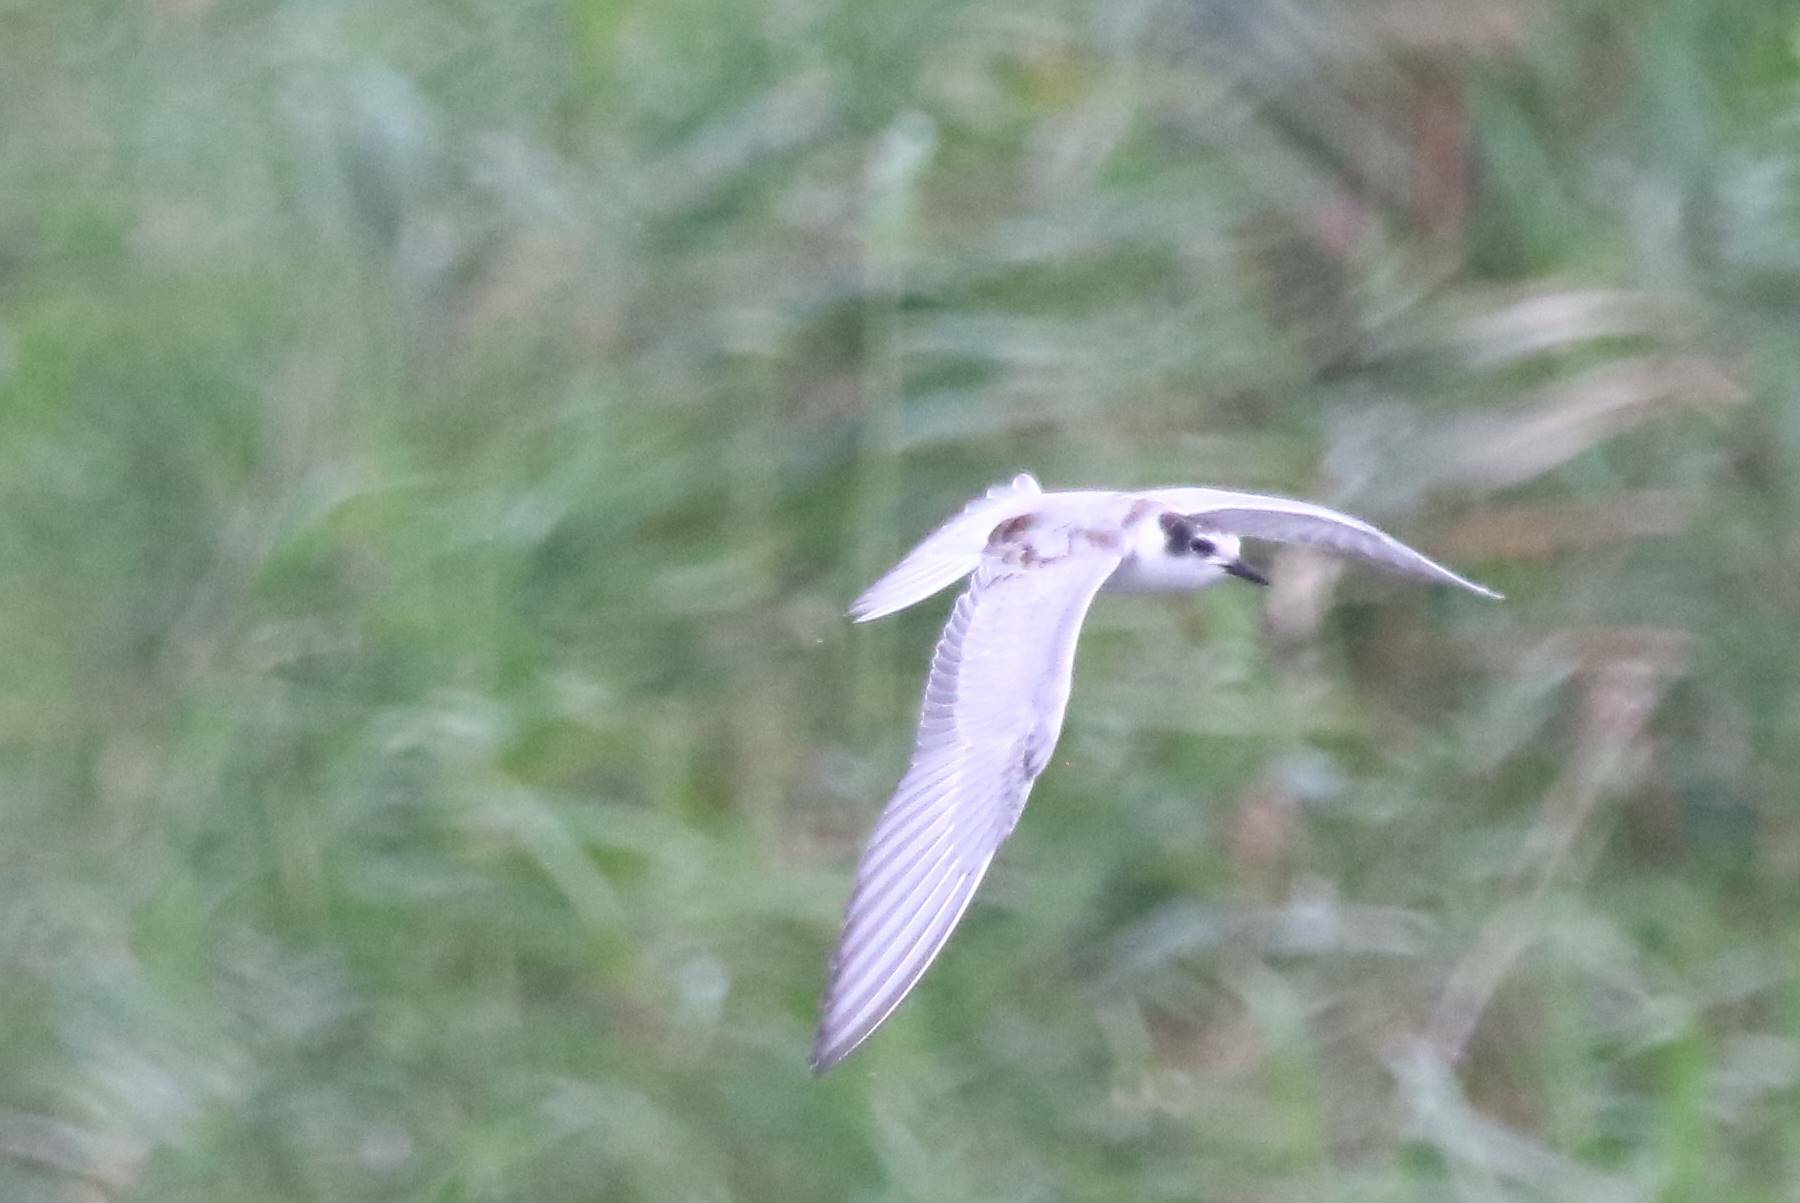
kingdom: Animalia
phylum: Chordata
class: Aves
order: Charadriiformes
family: Laridae
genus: Chlidonias
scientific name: Chlidonias hybrida
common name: Whiskered tern
